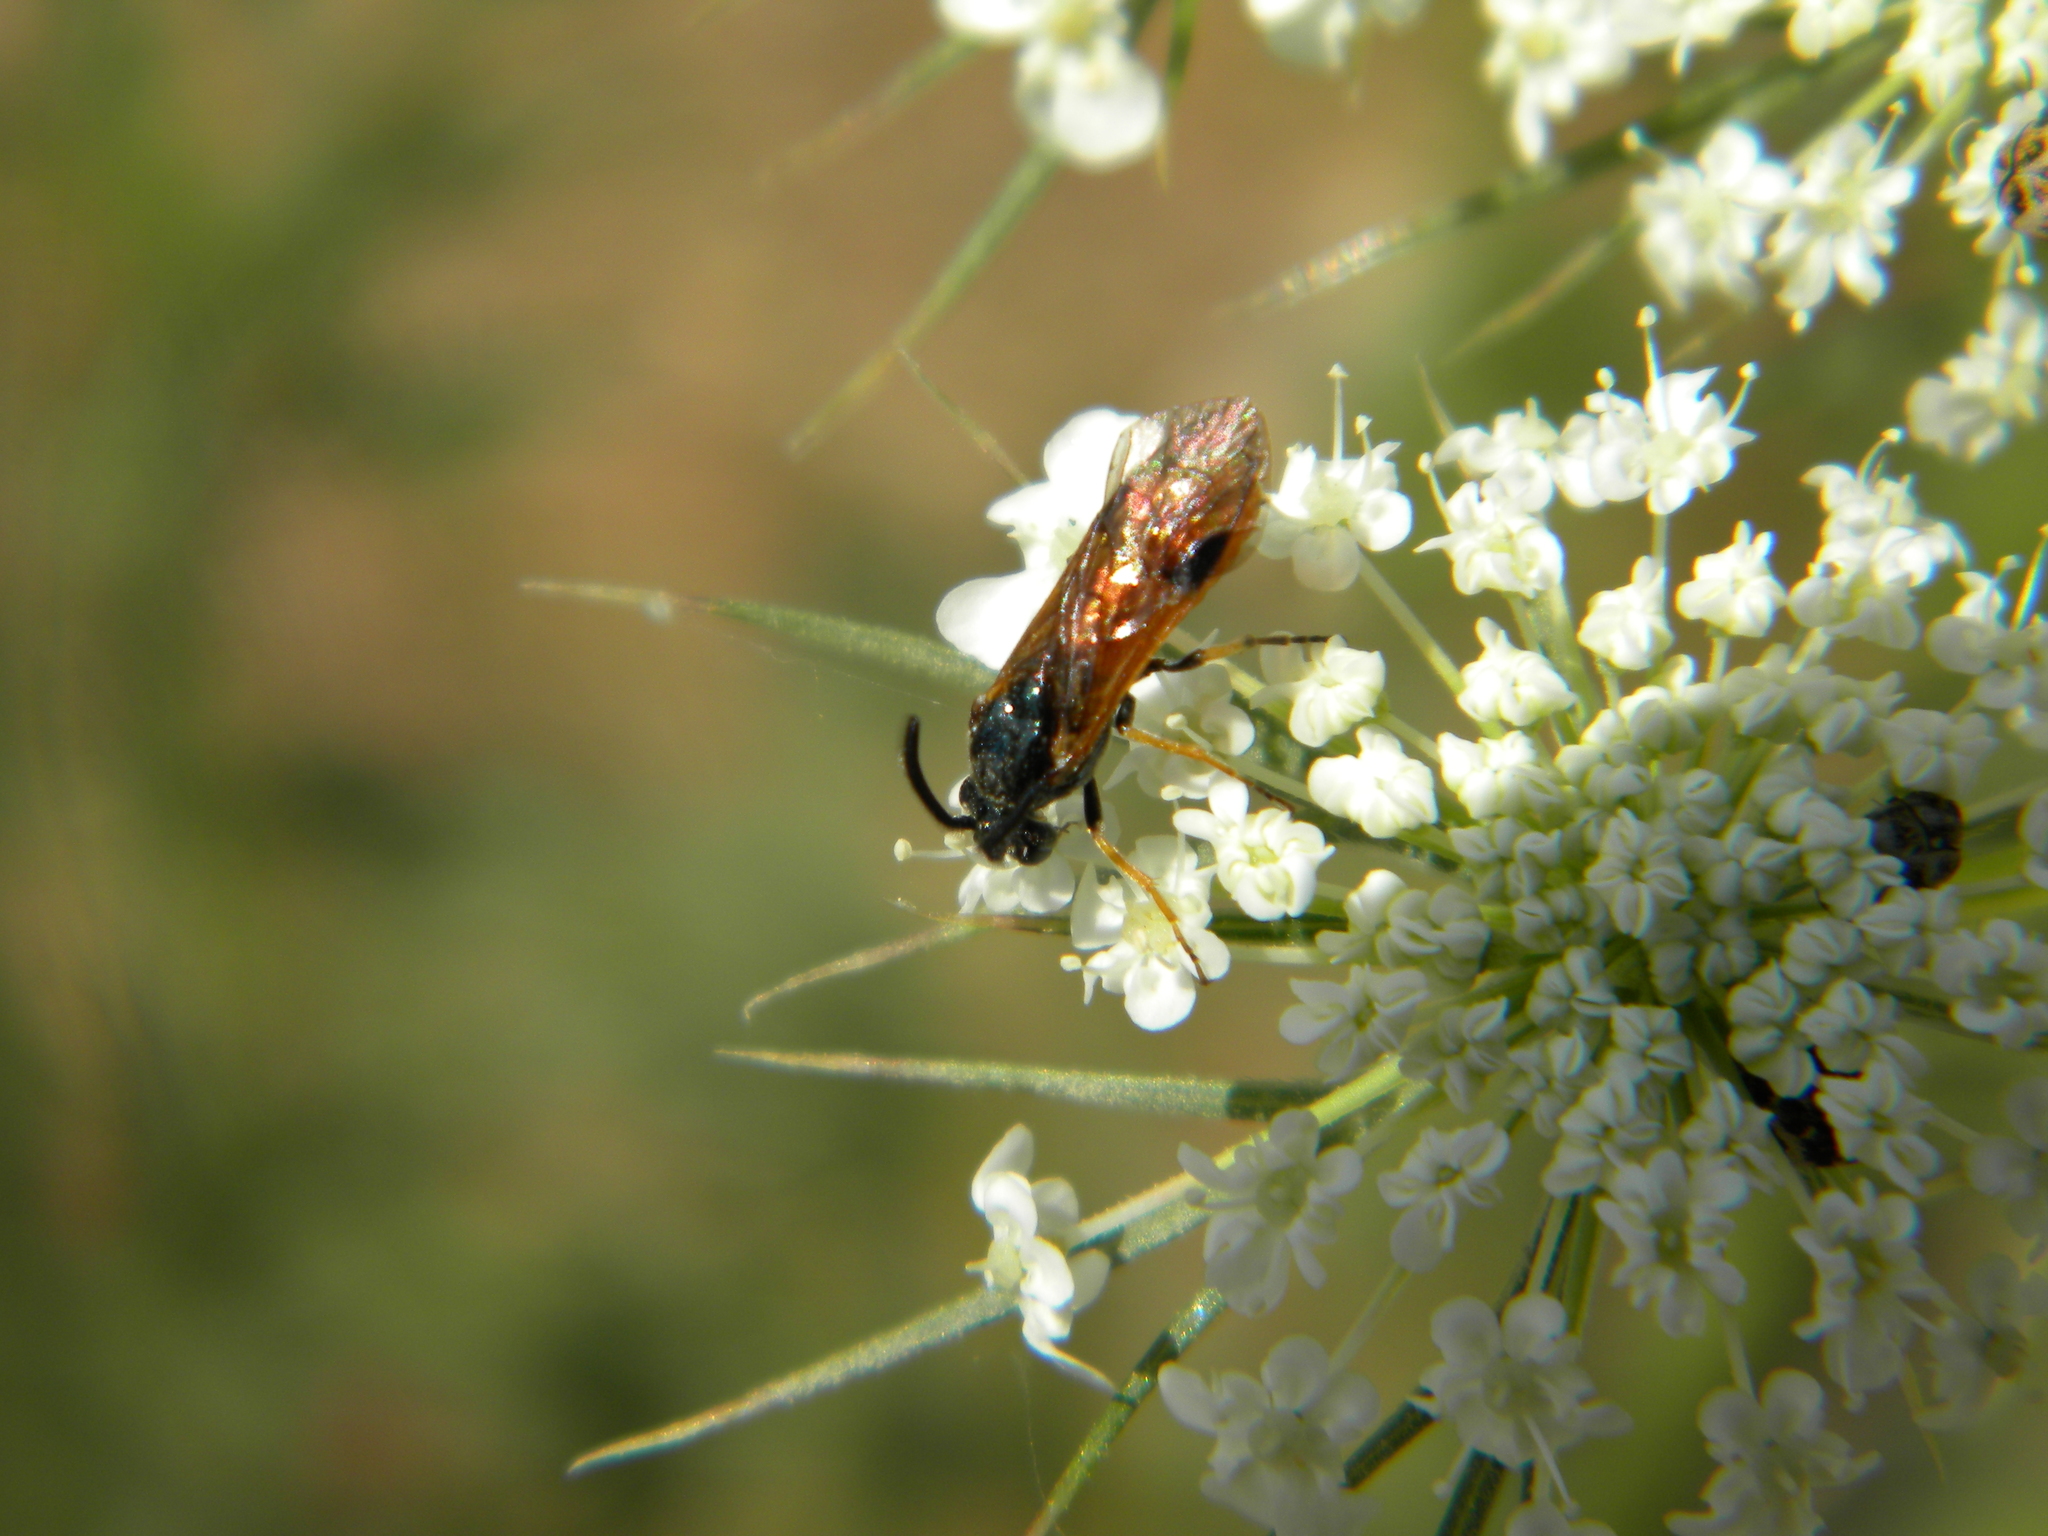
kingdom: Animalia
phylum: Arthropoda
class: Insecta
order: Hymenoptera
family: Argidae
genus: Arge
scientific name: Arge
